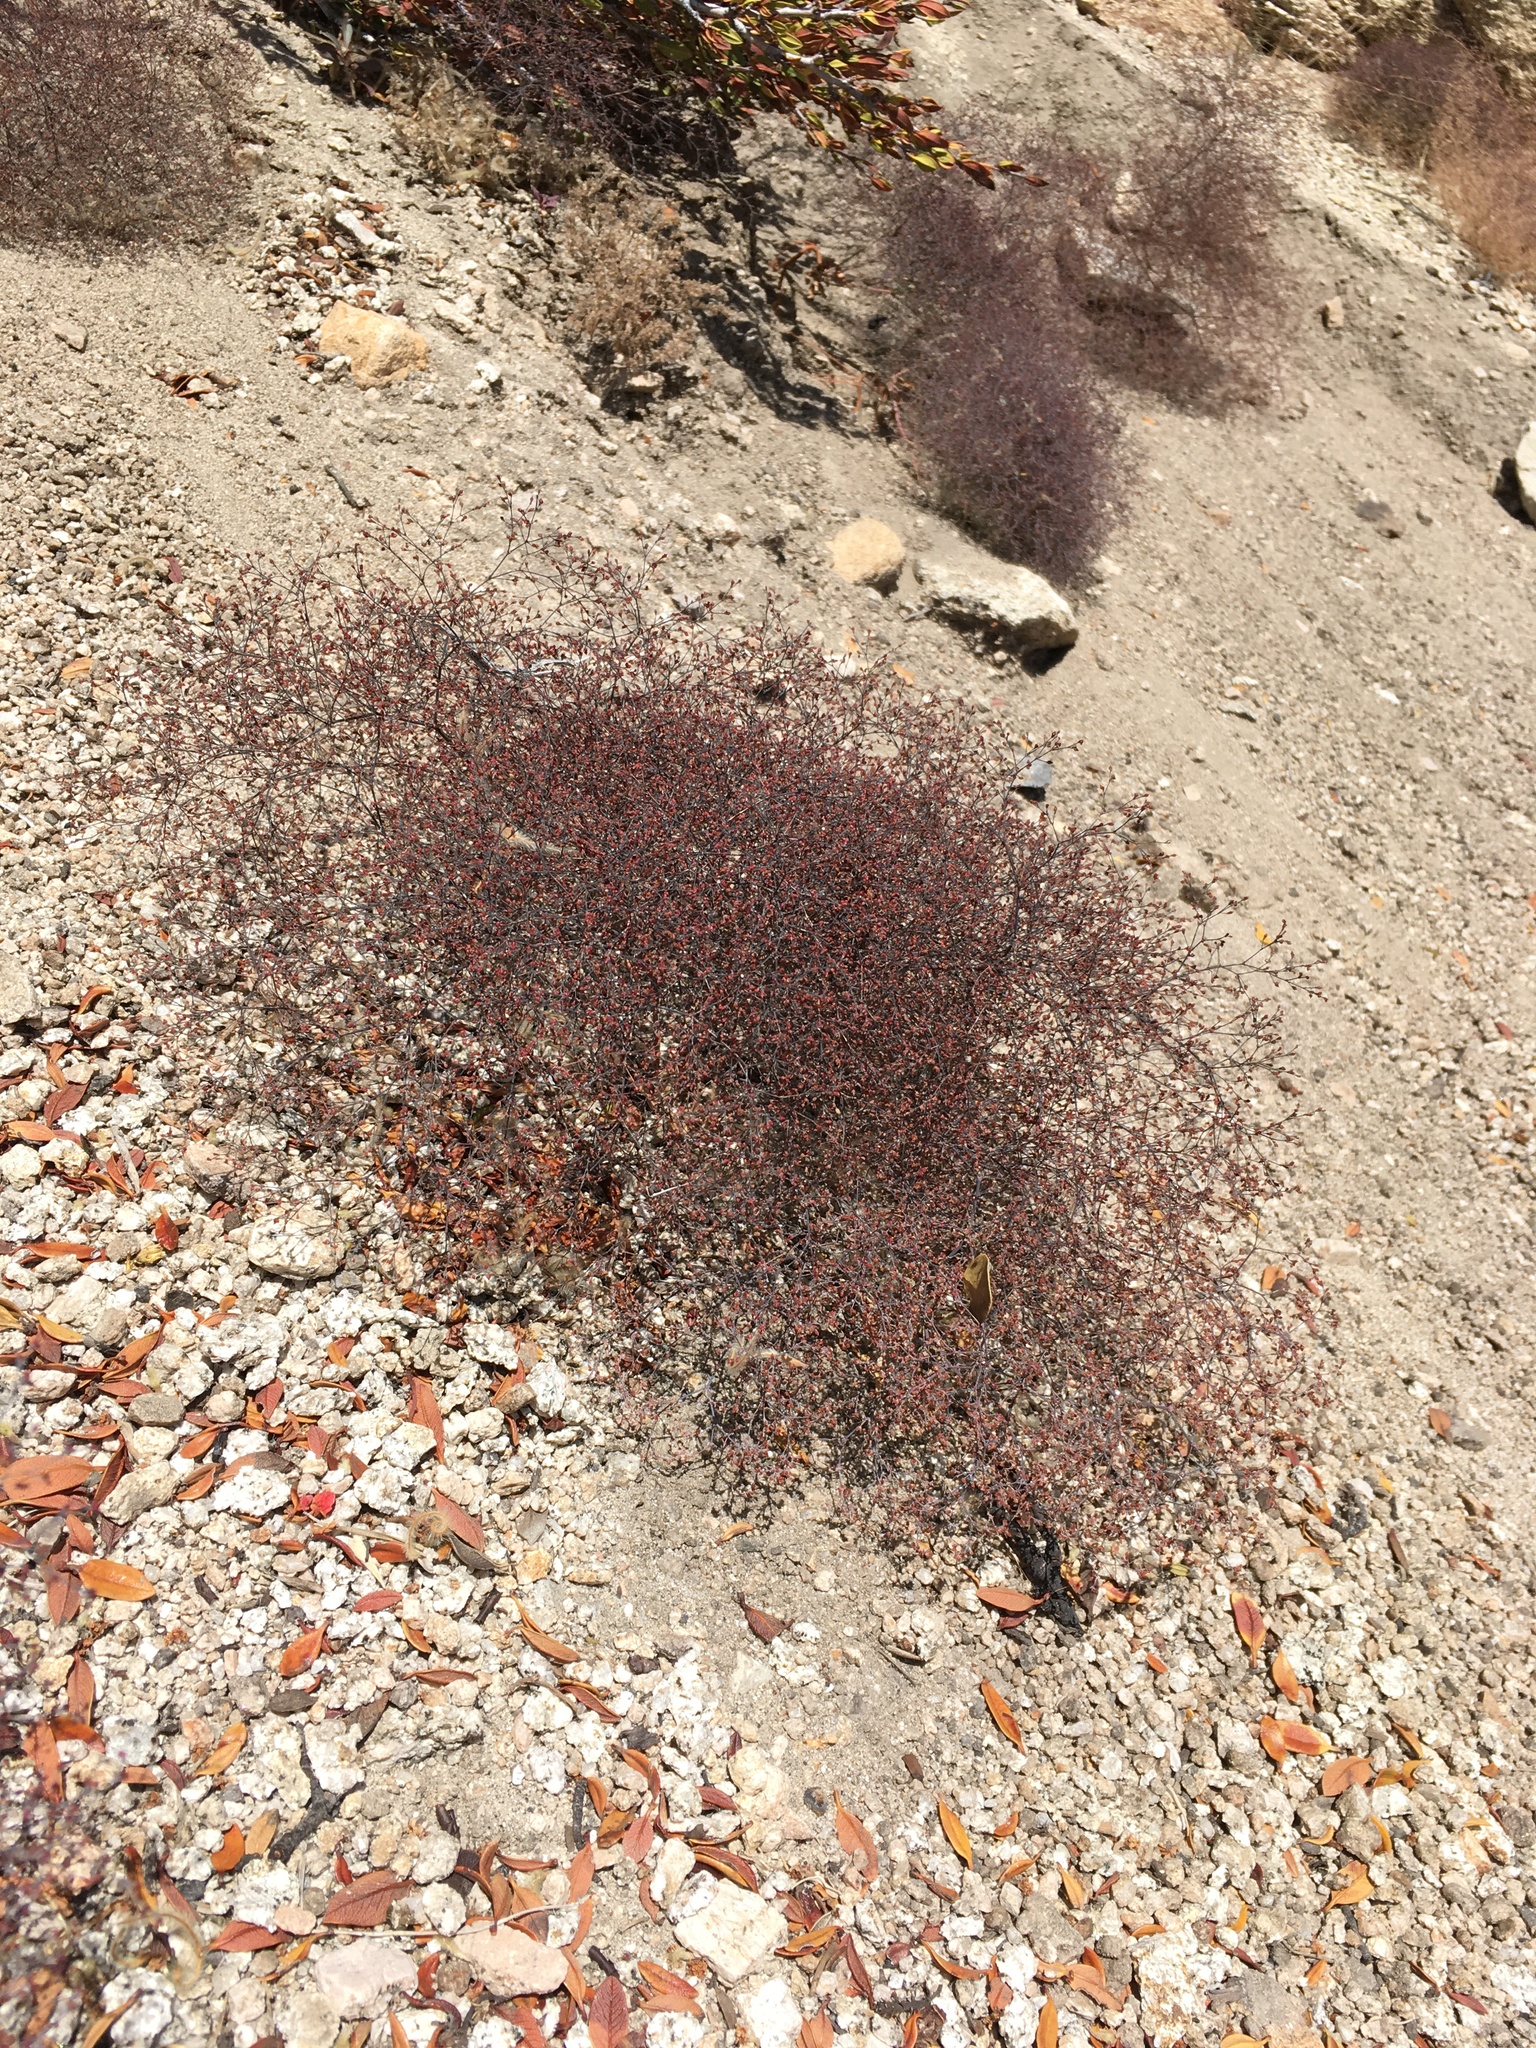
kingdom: Plantae
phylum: Tracheophyta
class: Magnoliopsida
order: Caryophyllales
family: Polygonaceae
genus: Eriogonum
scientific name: Eriogonum parishii
